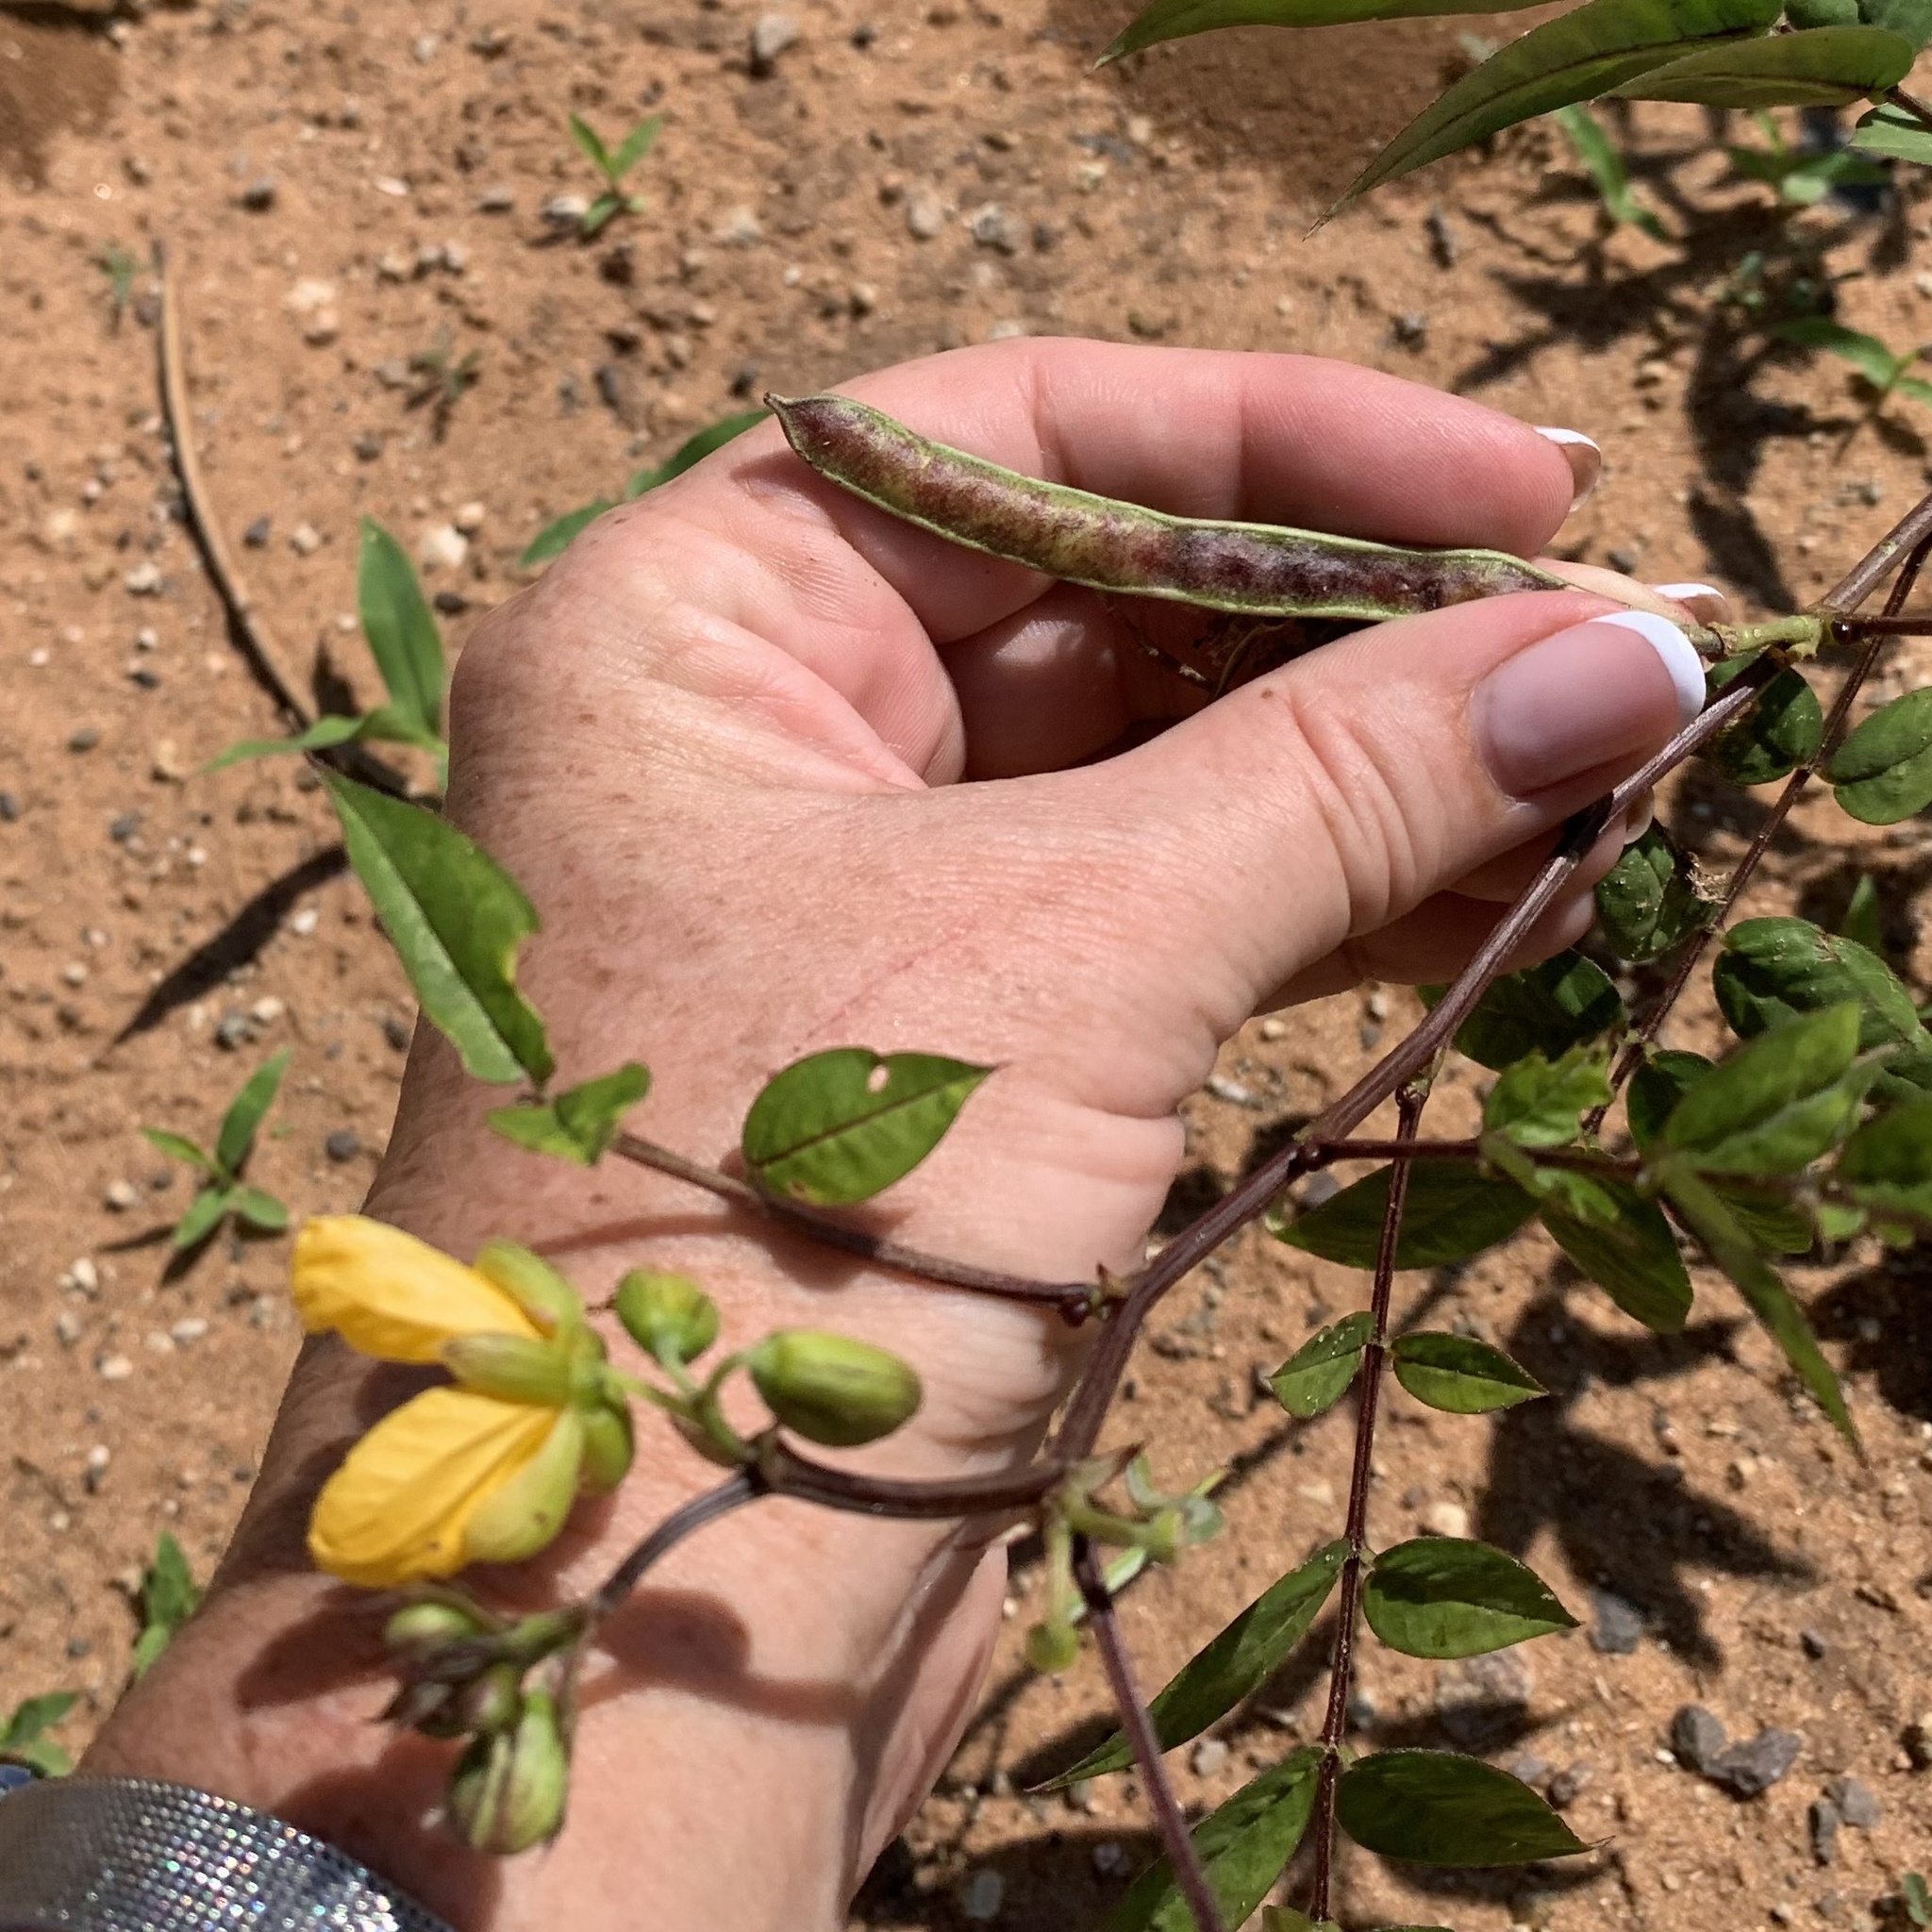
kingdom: Plantae
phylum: Tracheophyta
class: Magnoliopsida
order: Fabales
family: Fabaceae
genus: Senna
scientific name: Senna occidentalis
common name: Septicweed
